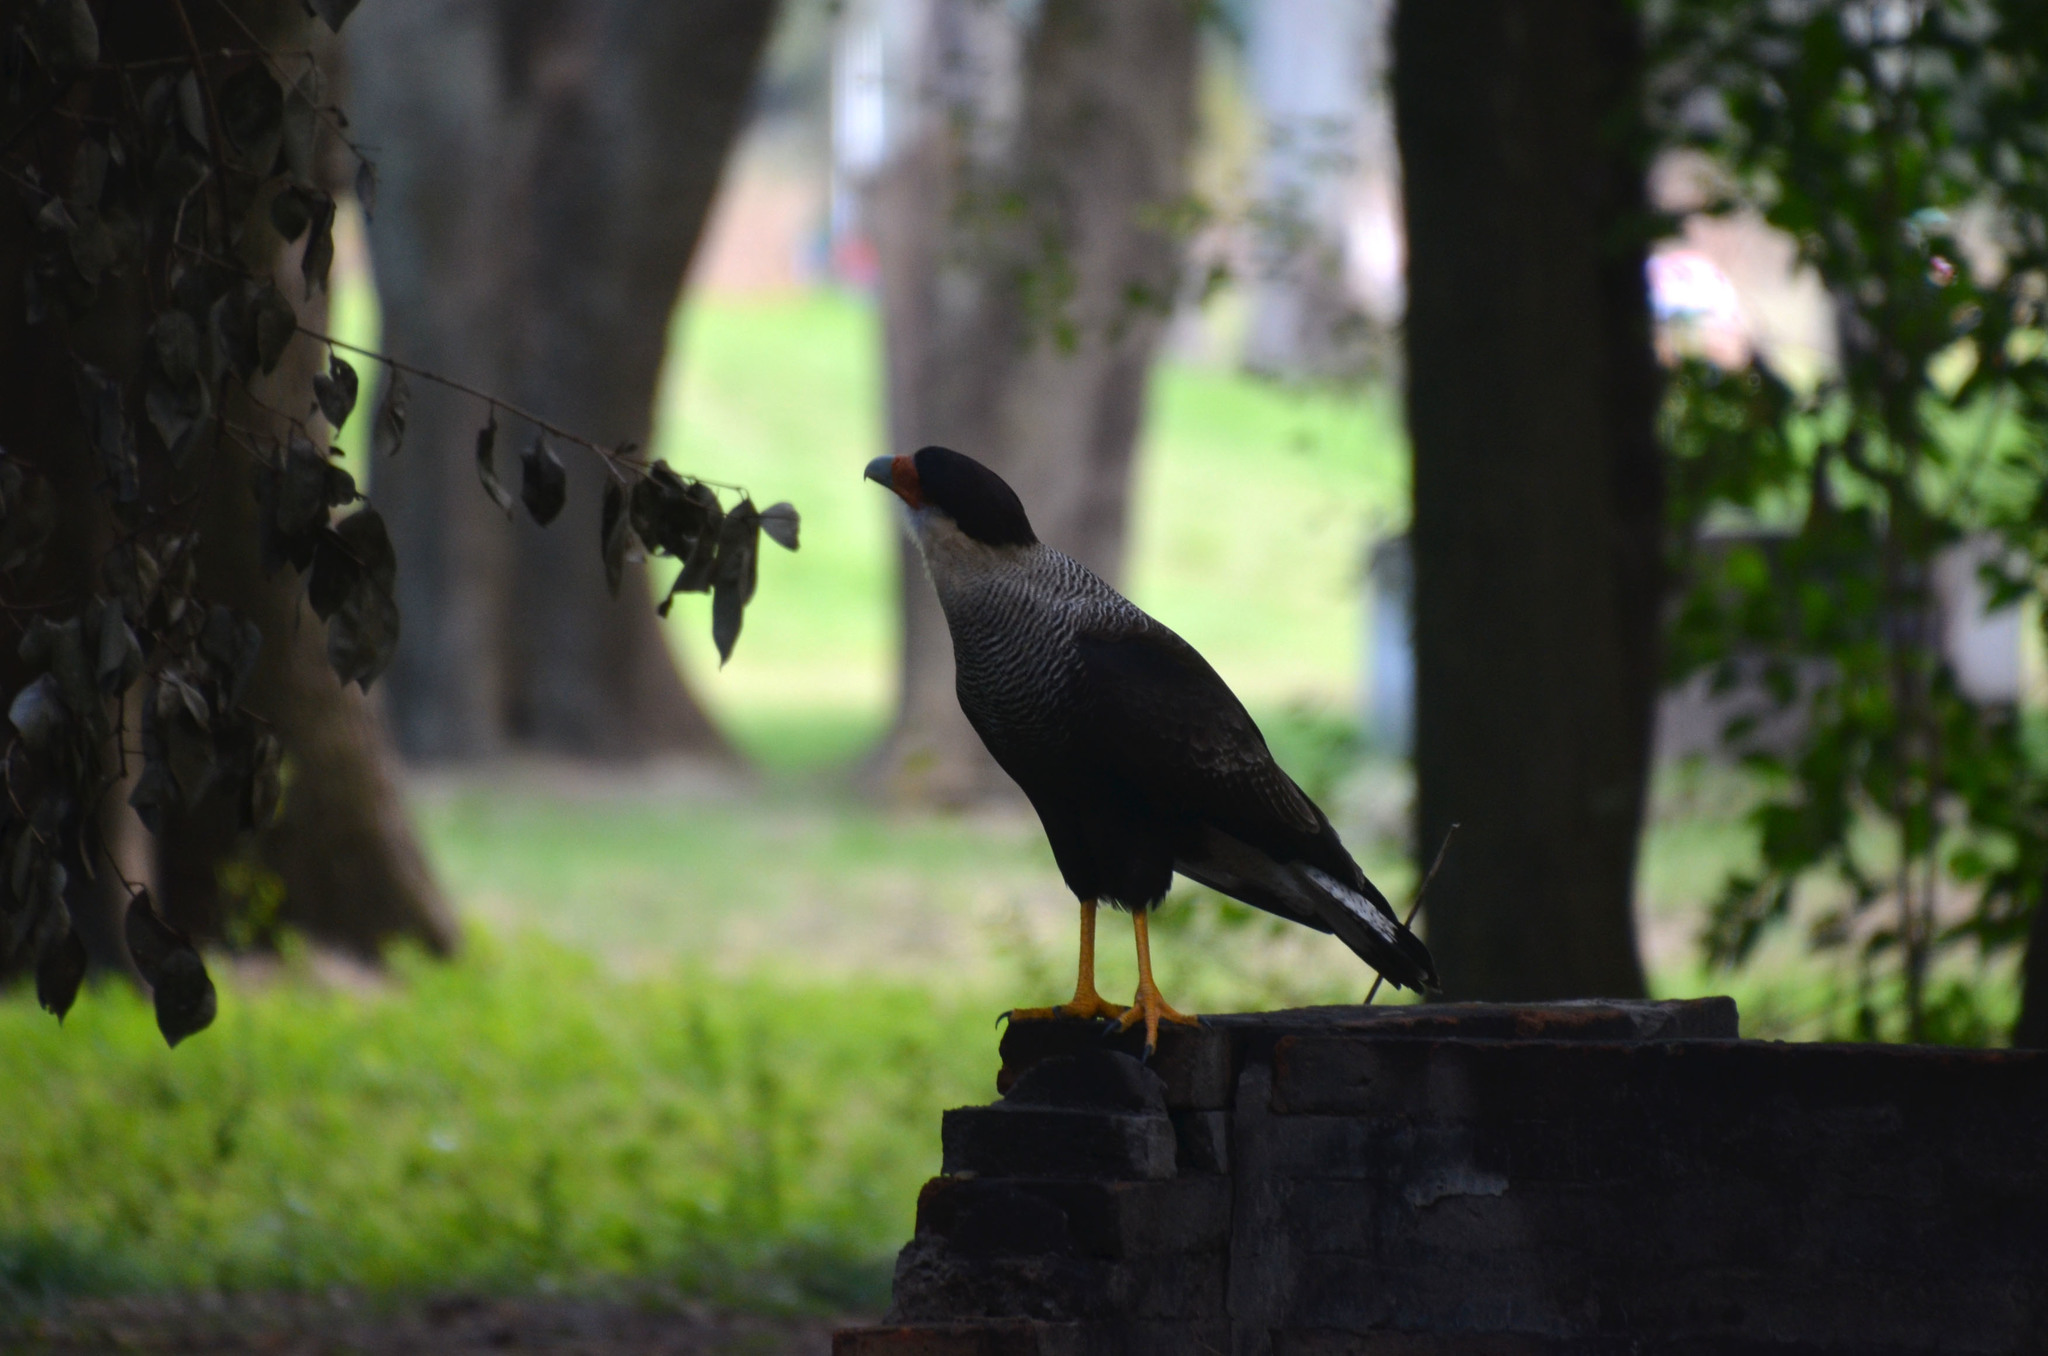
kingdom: Animalia
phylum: Chordata
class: Aves
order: Falconiformes
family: Falconidae
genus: Caracara
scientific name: Caracara plancus
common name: Southern caracara
